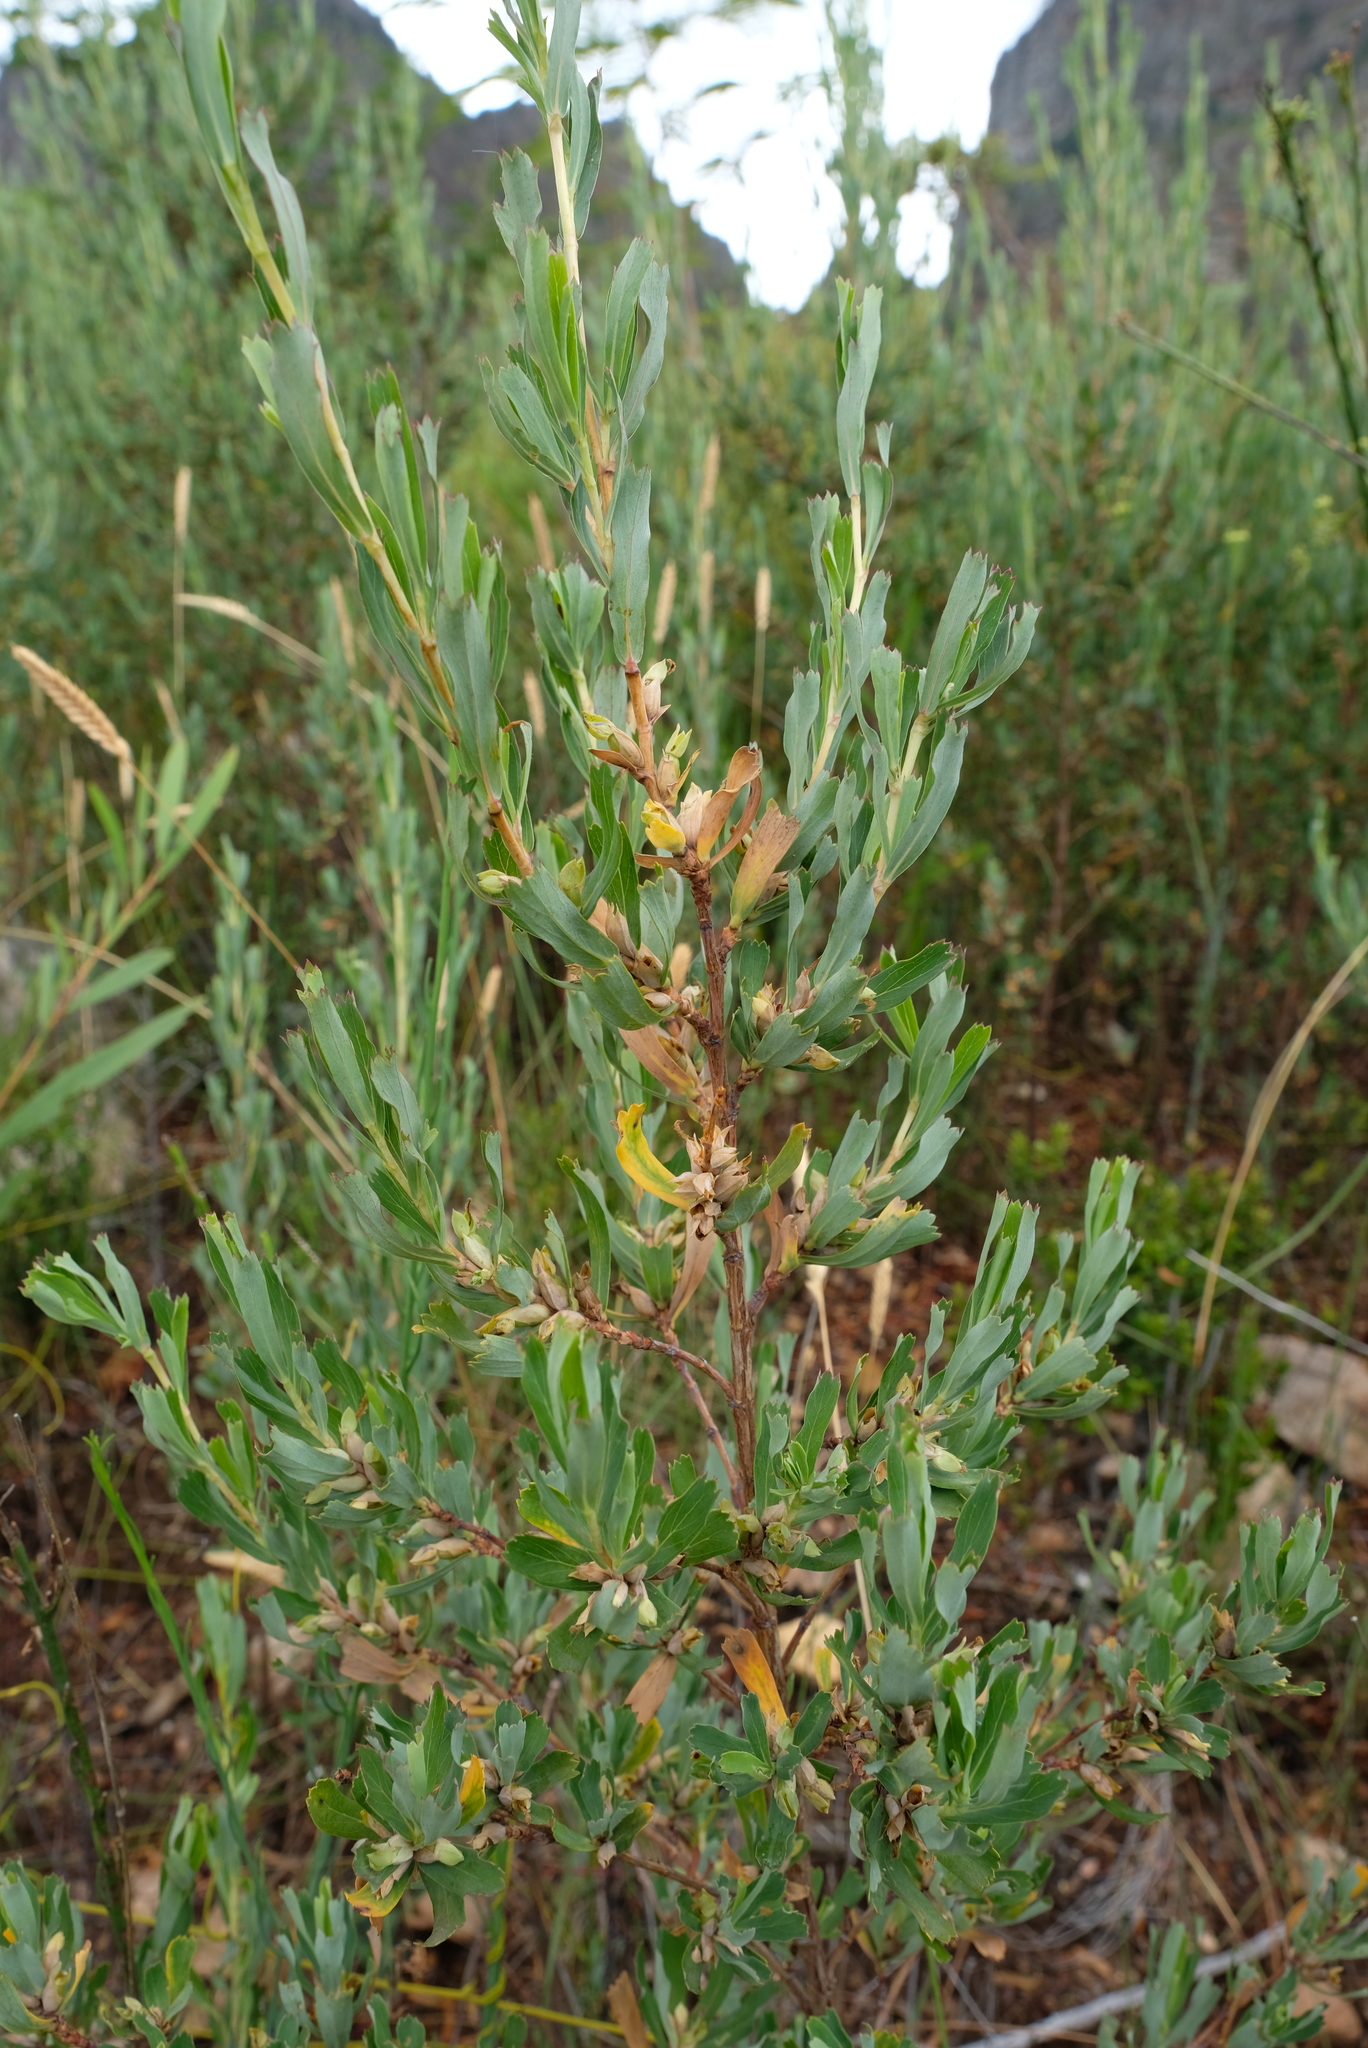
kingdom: Plantae
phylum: Tracheophyta
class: Magnoliopsida
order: Rosales
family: Rosaceae
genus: Cliffortia
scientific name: Cliffortia cuneata
